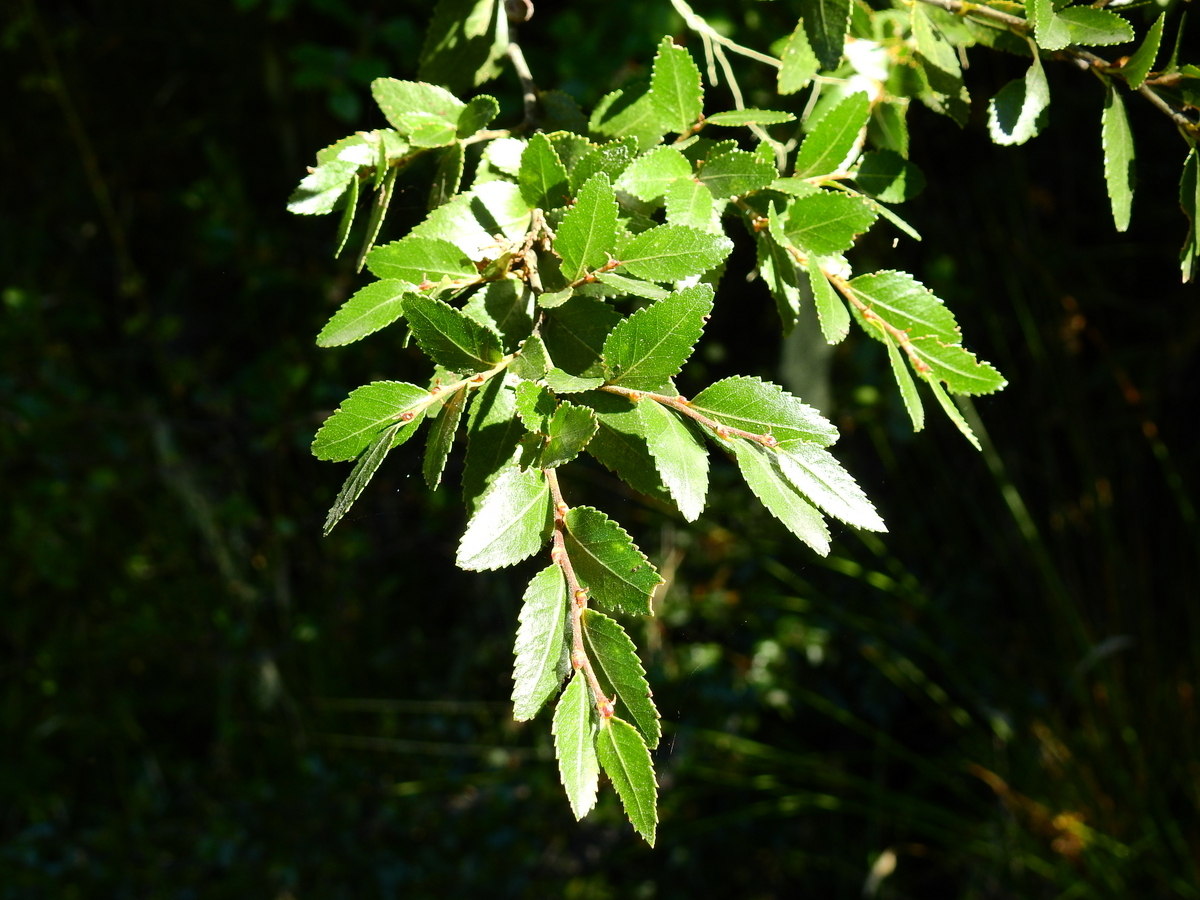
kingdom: Plantae
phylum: Tracheophyta
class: Magnoliopsida
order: Fagales
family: Nothofagaceae
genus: Nothofagus
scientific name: Nothofagus dombeyi
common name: Coigue
